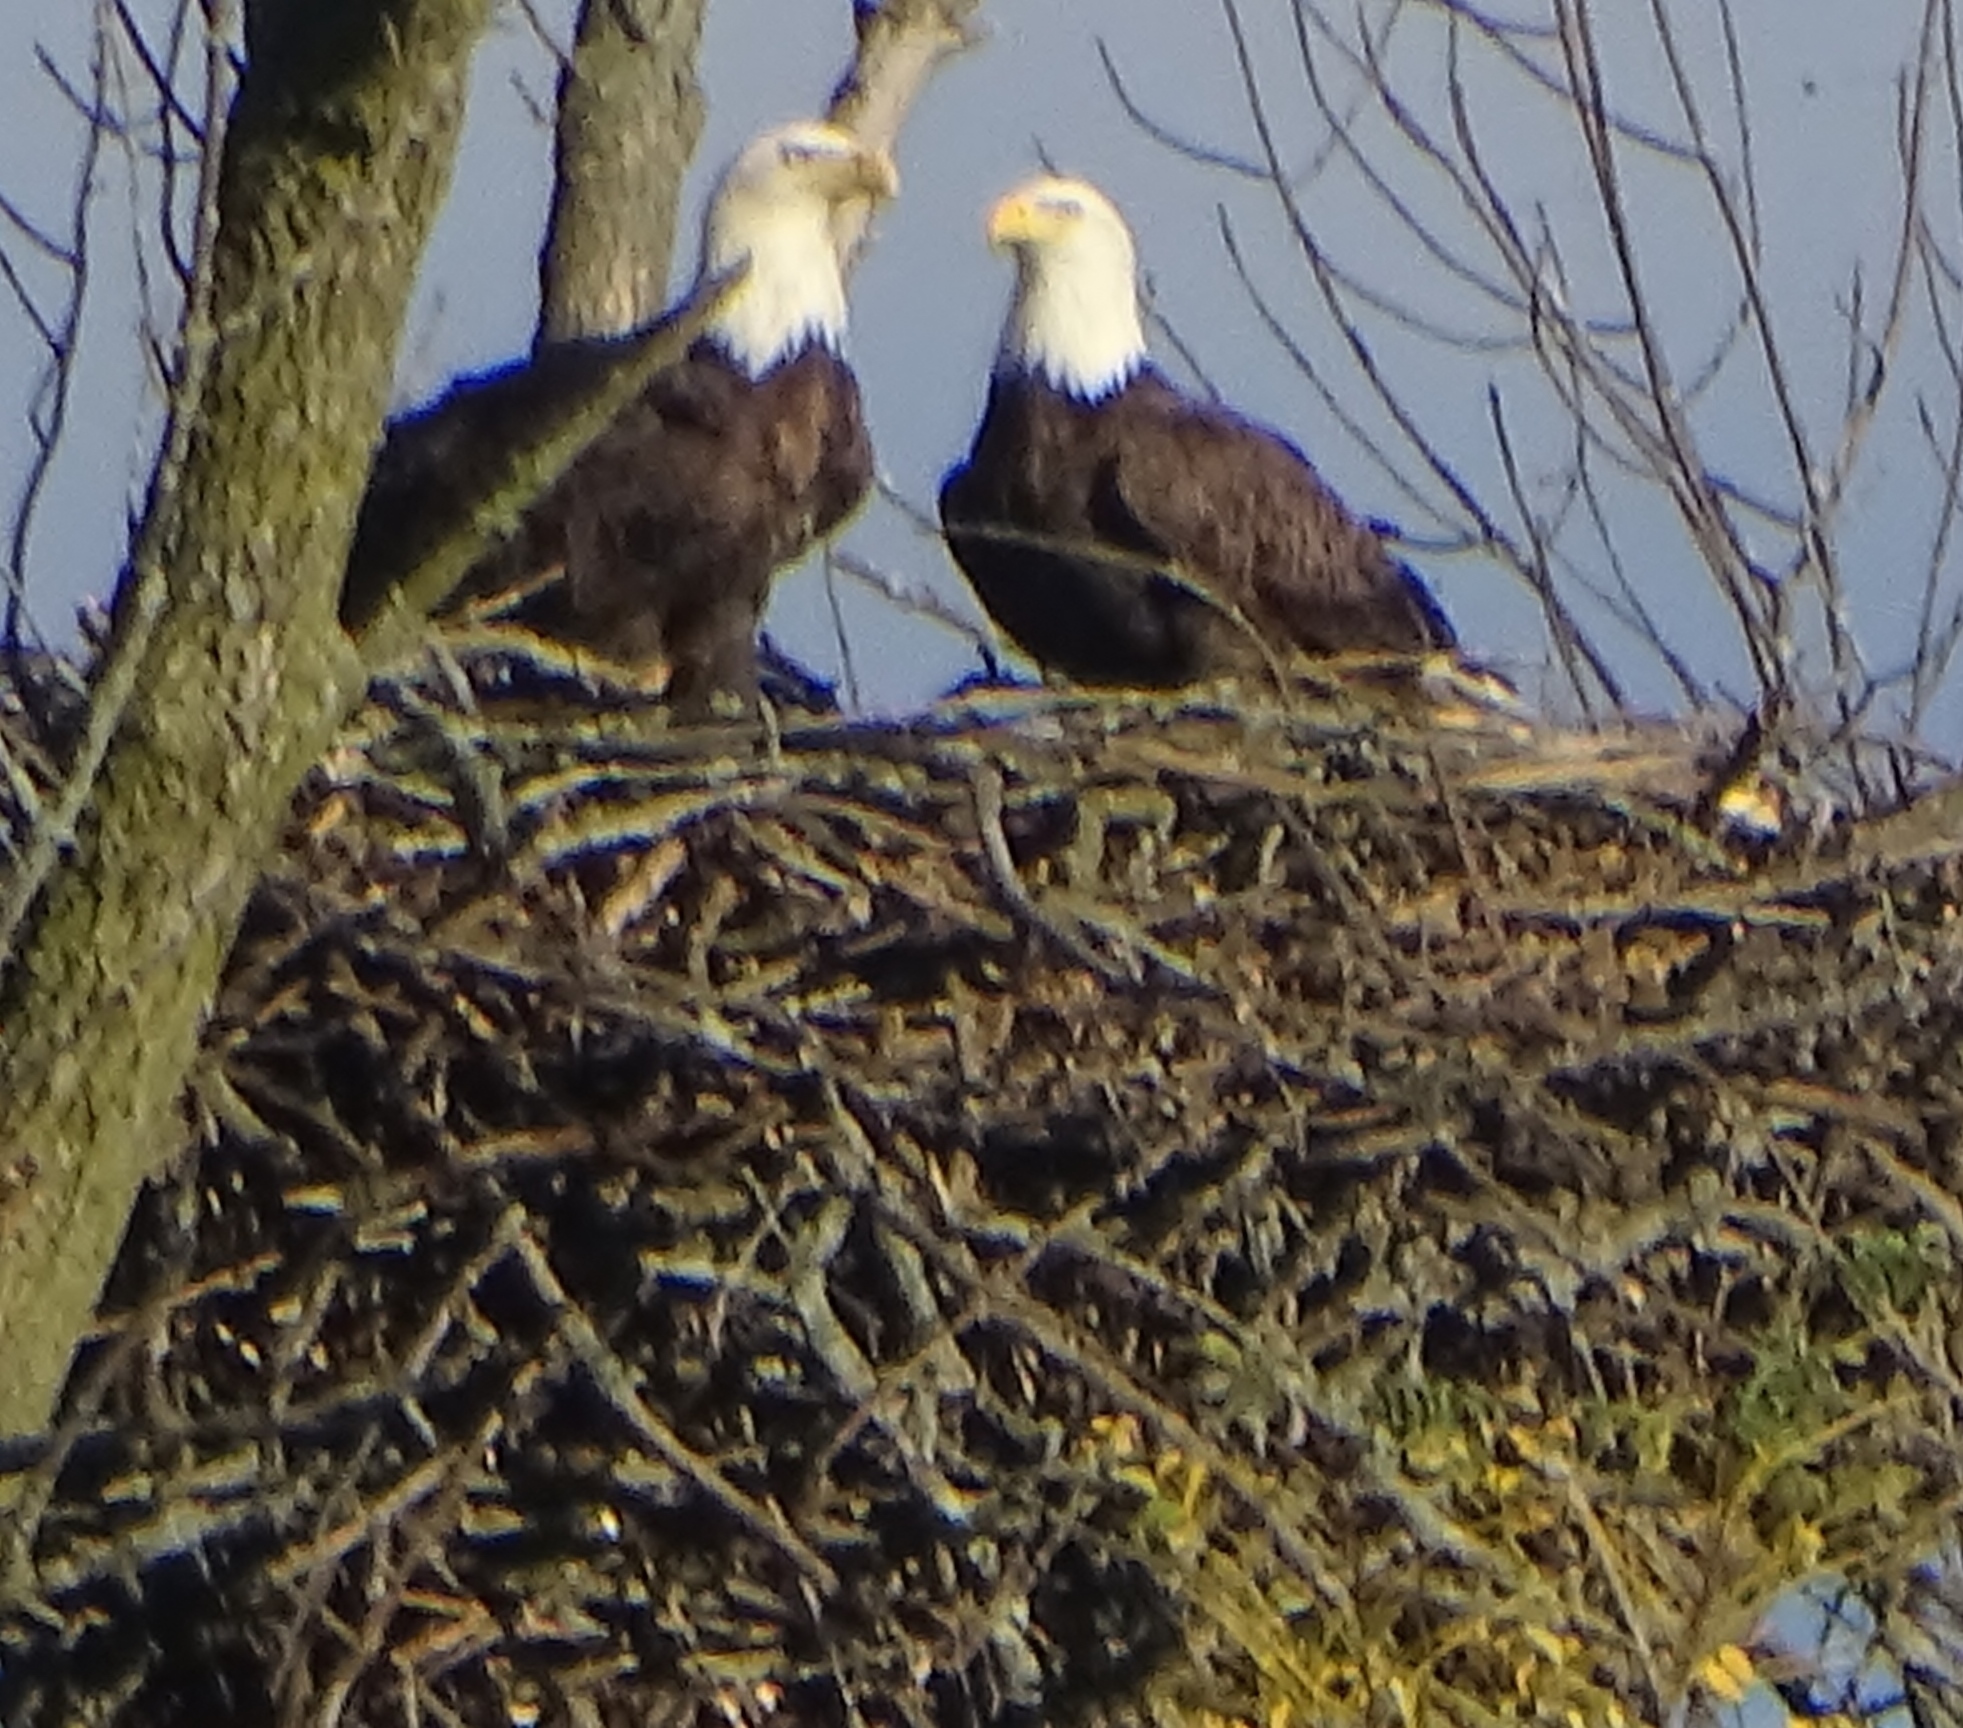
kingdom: Animalia
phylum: Chordata
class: Aves
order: Accipitriformes
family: Accipitridae
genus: Haliaeetus
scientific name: Haliaeetus leucocephalus
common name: Bald eagle
